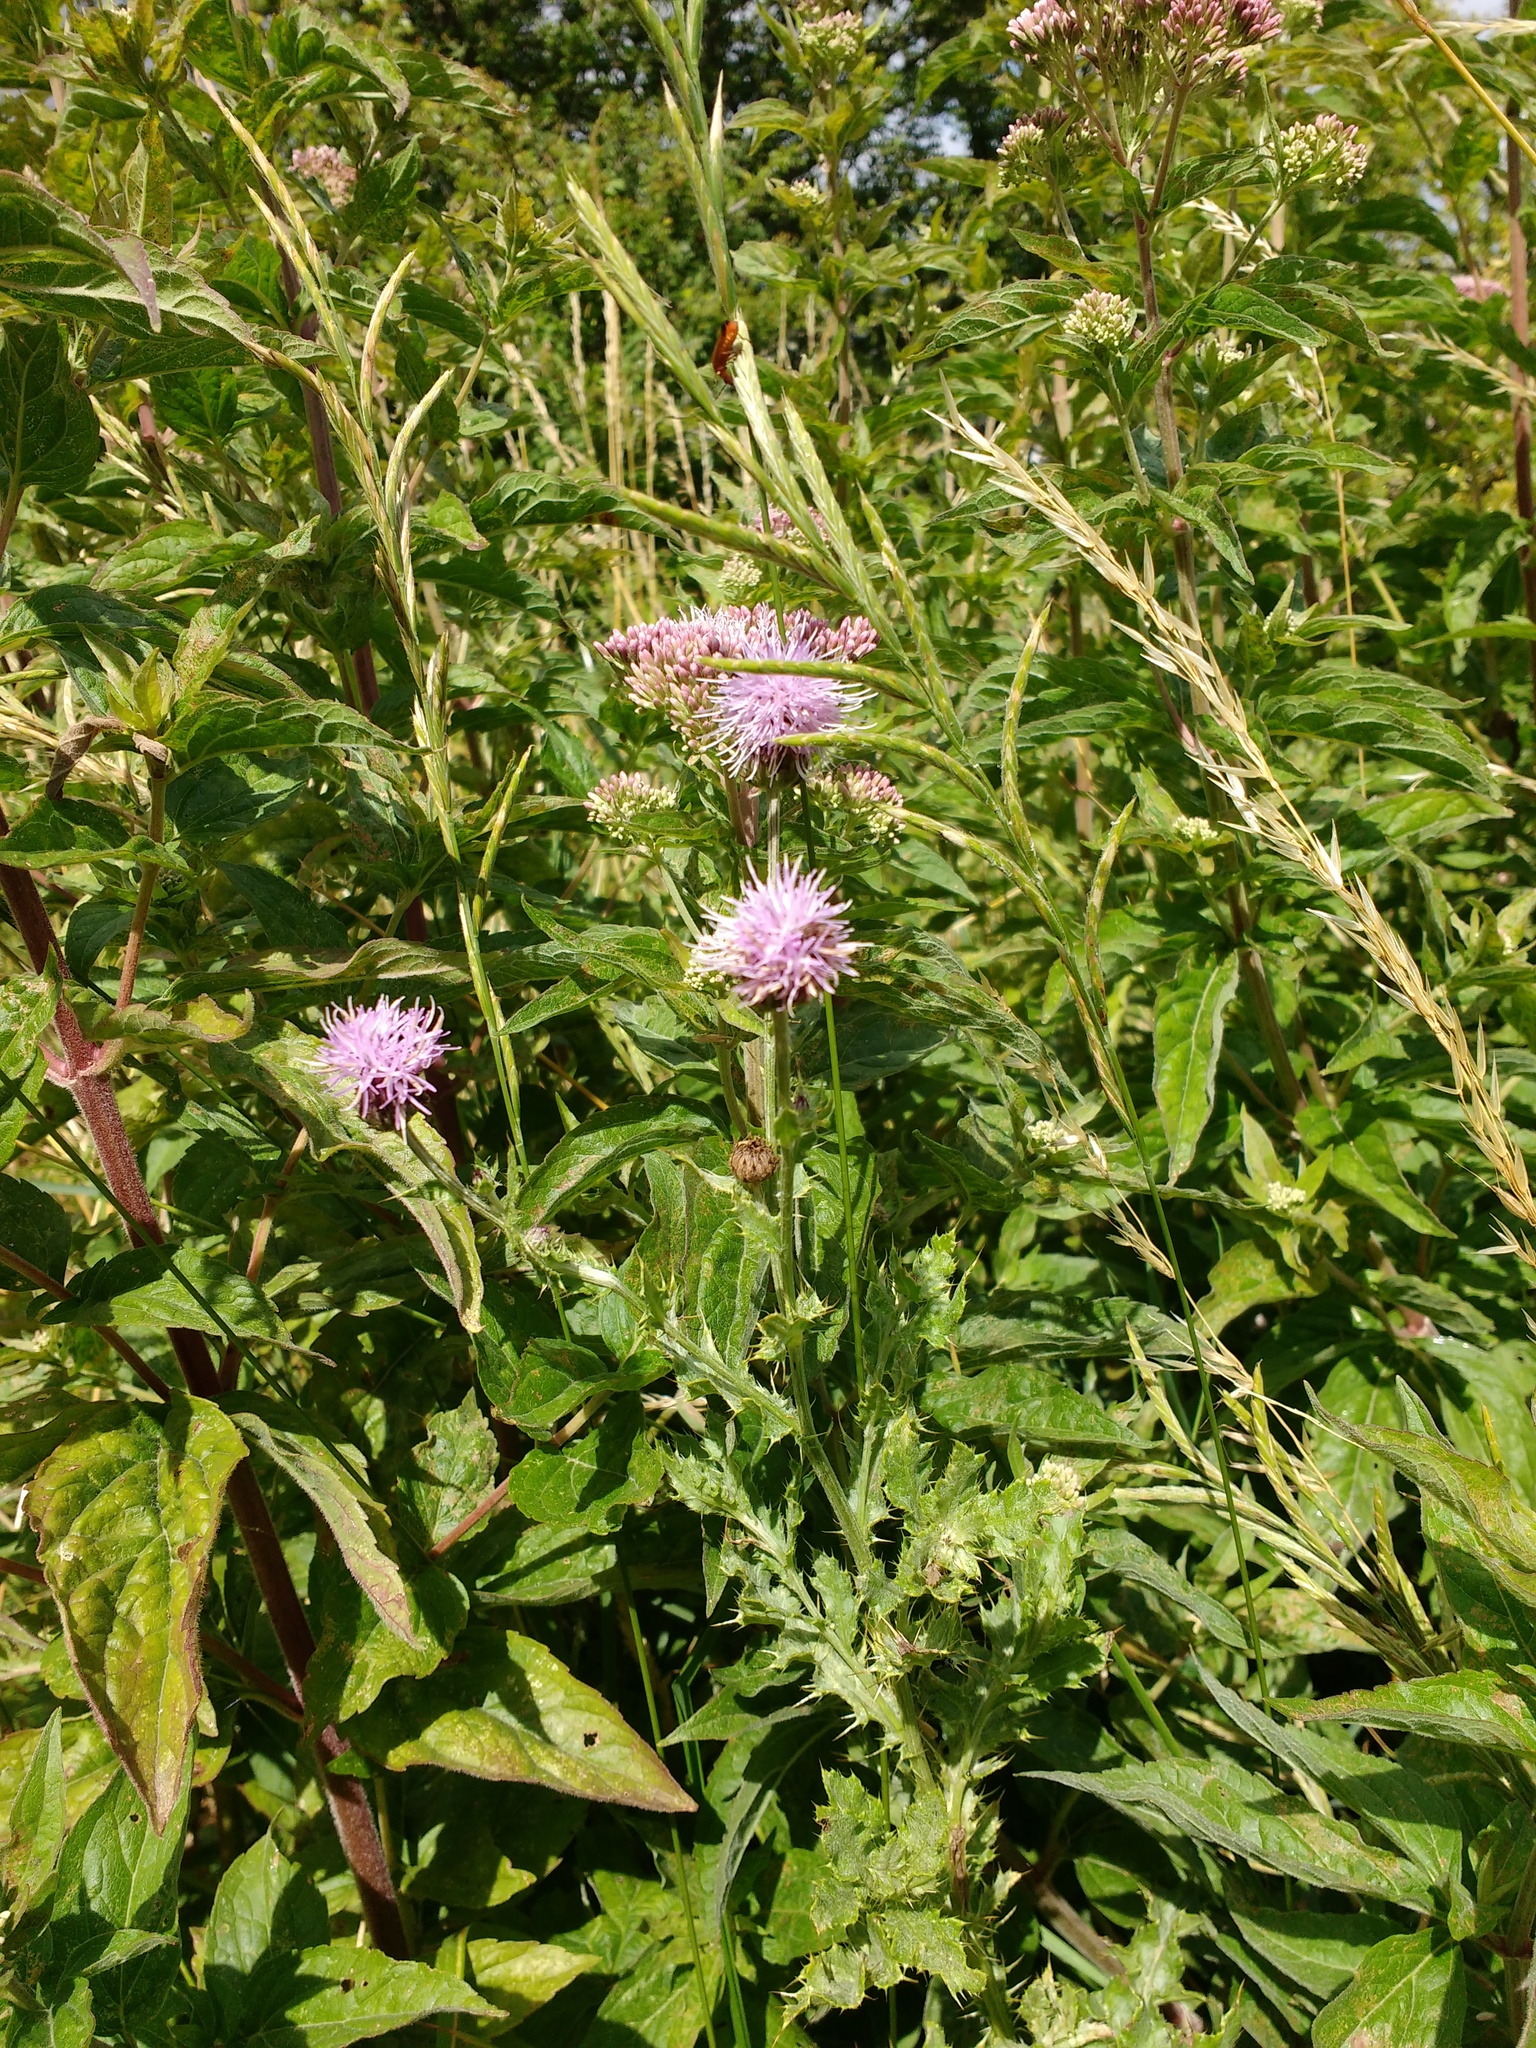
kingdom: Plantae
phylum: Tracheophyta
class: Magnoliopsida
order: Asterales
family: Asteraceae
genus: Cirsium
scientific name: Cirsium arvense
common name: Creeping thistle
